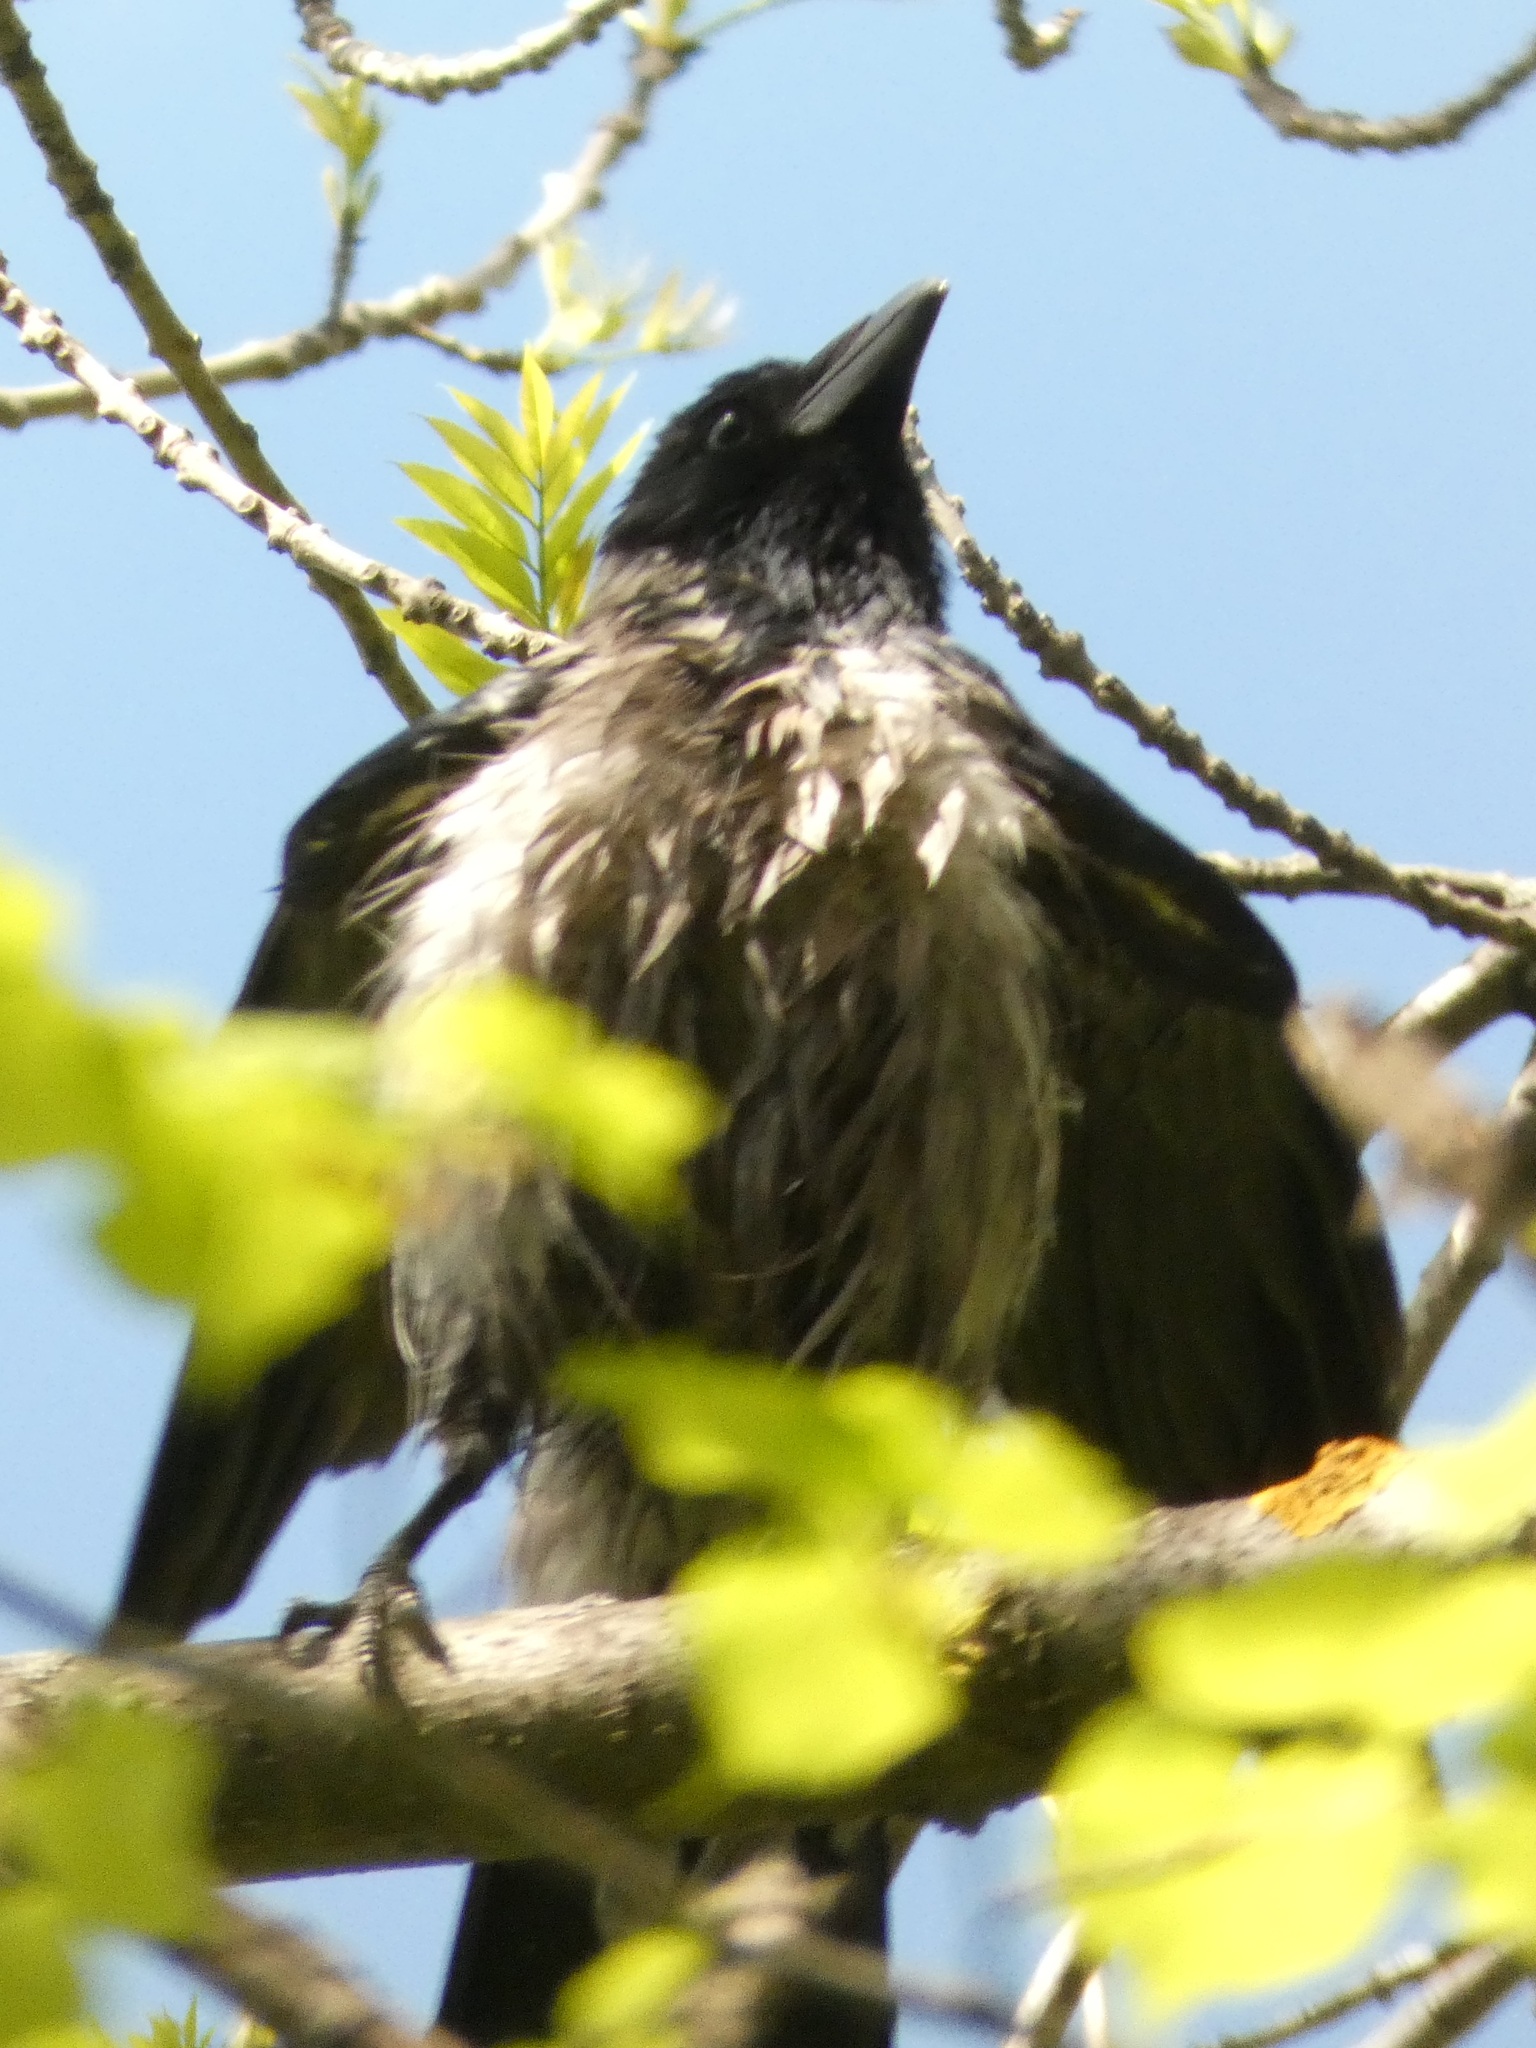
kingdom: Animalia
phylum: Chordata
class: Aves
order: Passeriformes
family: Corvidae
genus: Corvus
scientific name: Corvus cornix
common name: Hooded crow
